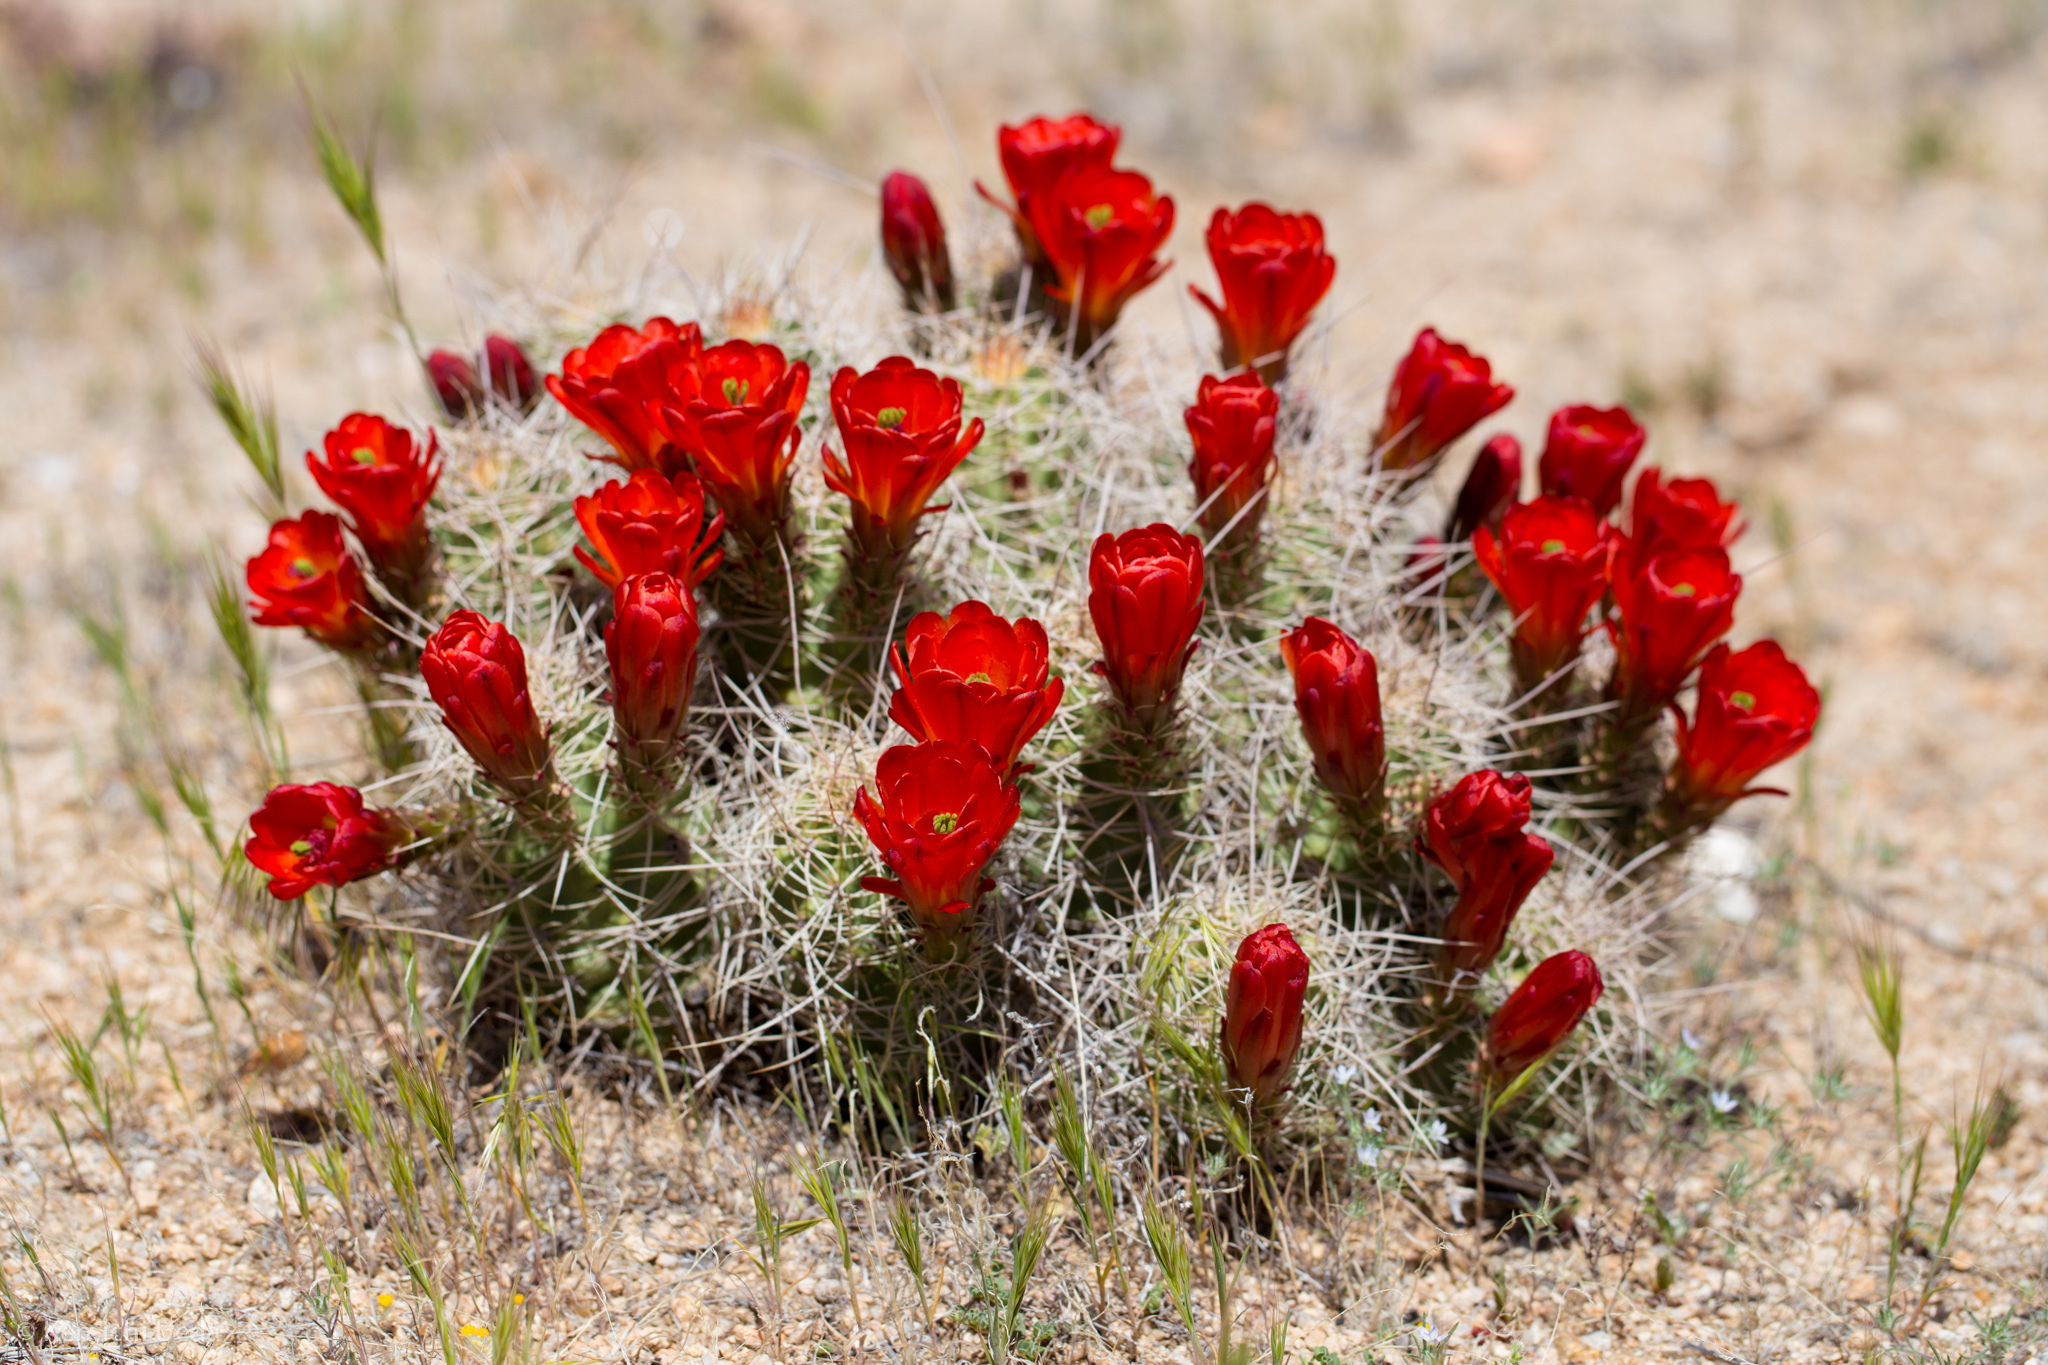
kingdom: Plantae
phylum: Tracheophyta
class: Magnoliopsida
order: Caryophyllales
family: Cactaceae
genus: Echinocereus
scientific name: Echinocereus triglochidiatus
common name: Claretcup hedgehog
